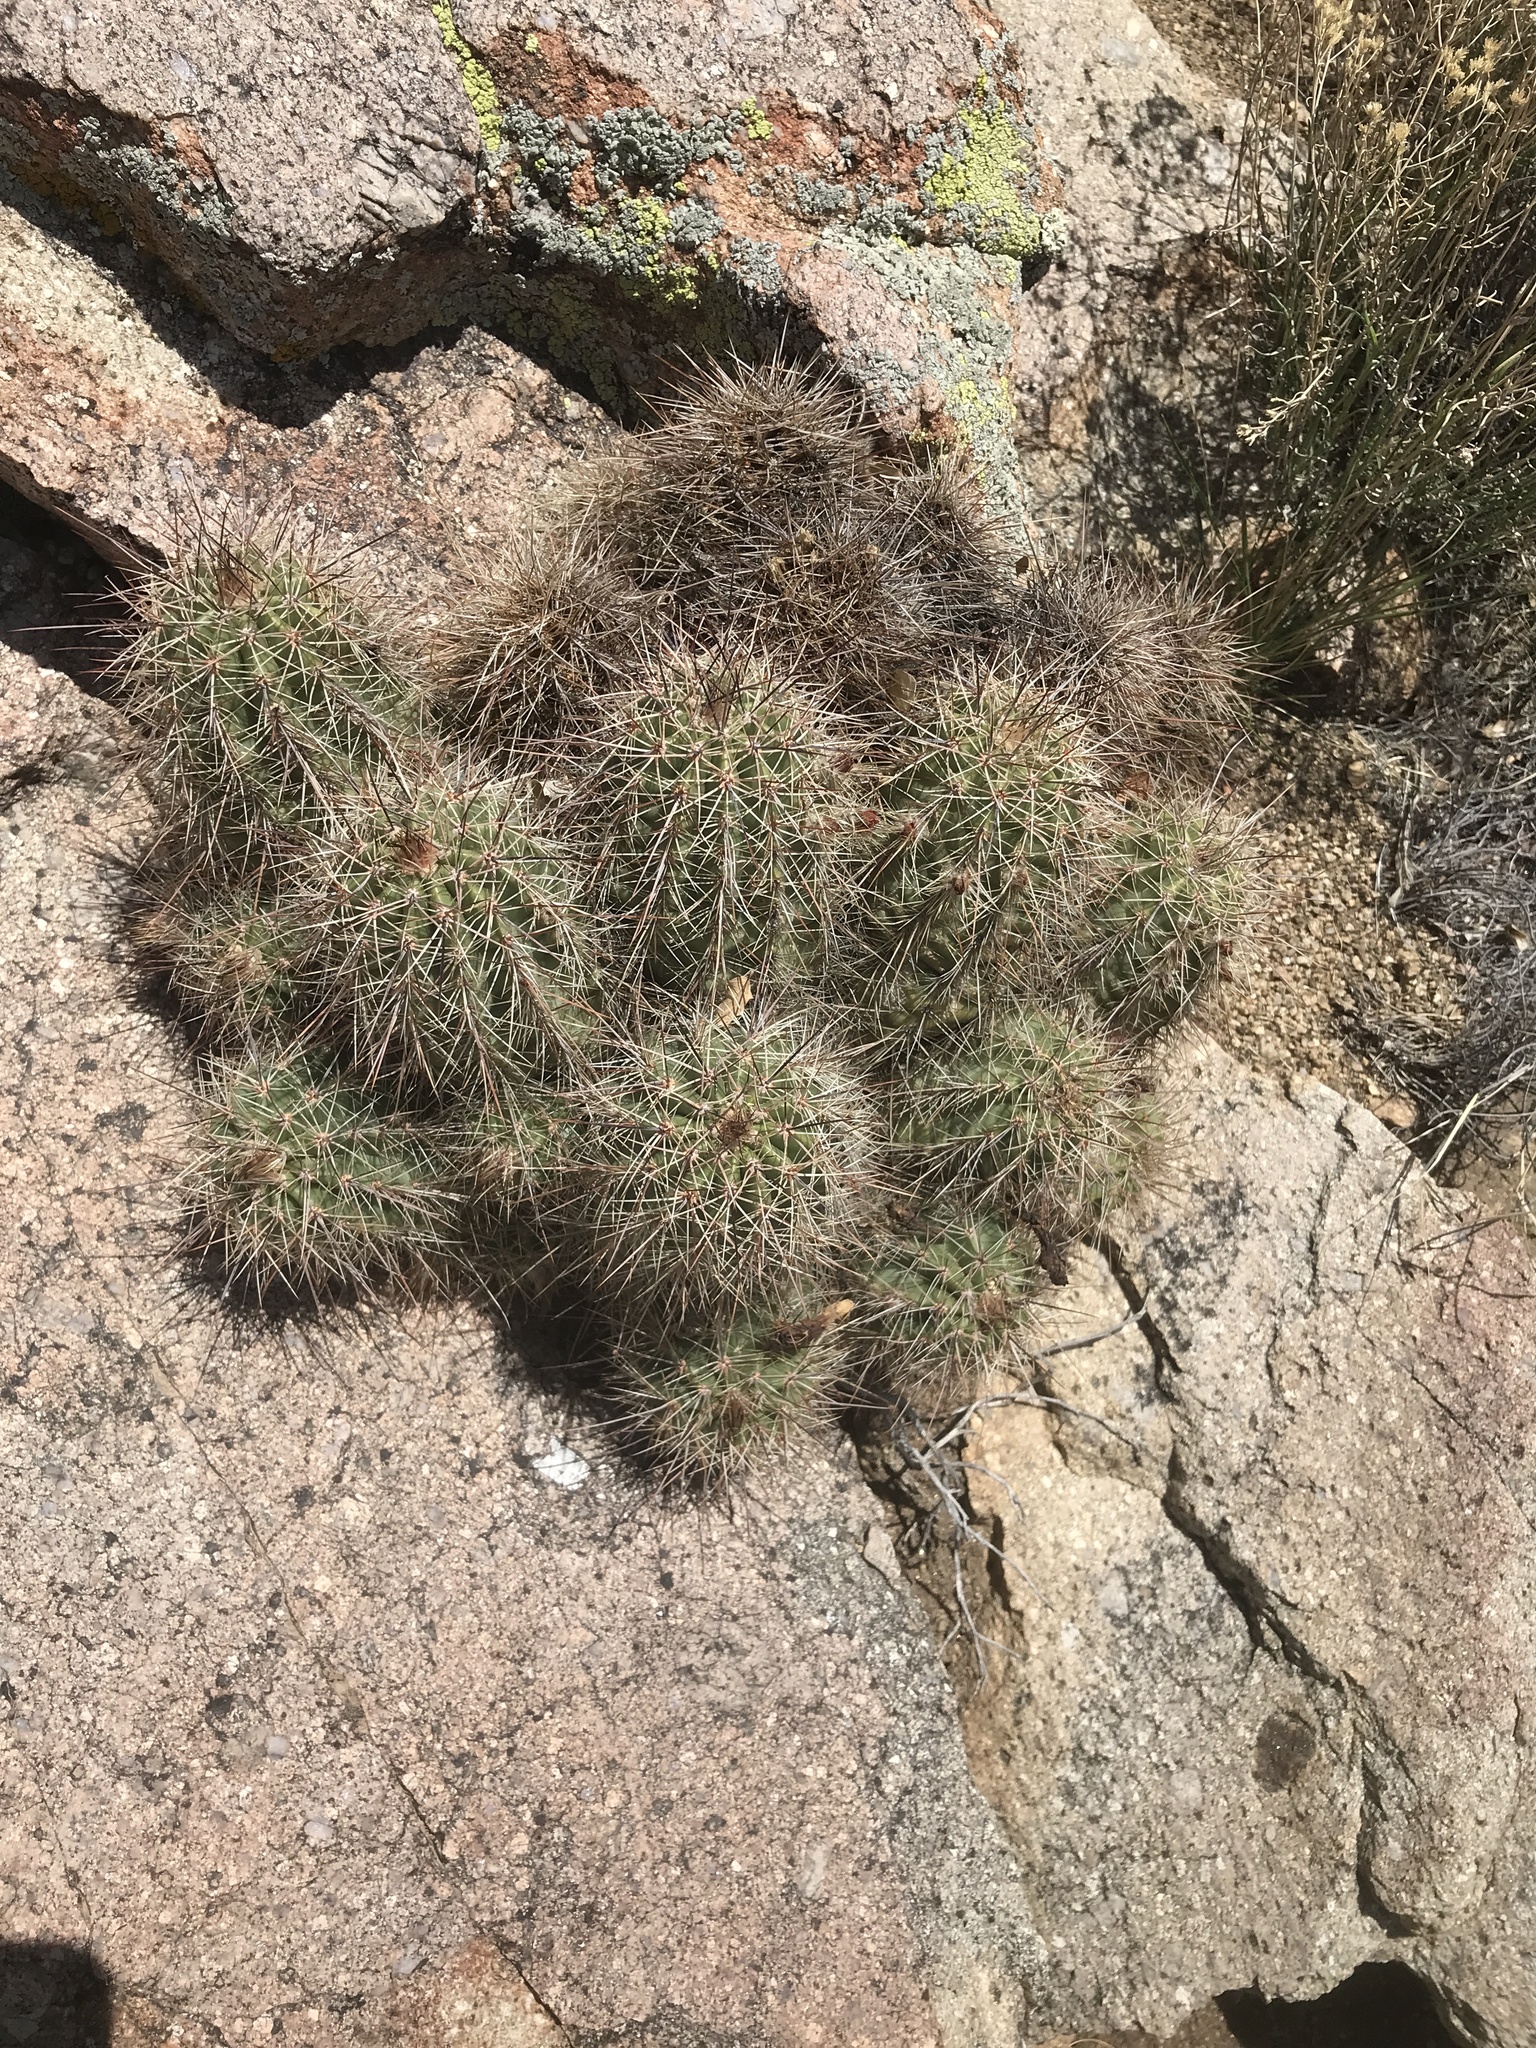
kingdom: Plantae
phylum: Tracheophyta
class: Magnoliopsida
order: Caryophyllales
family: Cactaceae
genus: Echinocereus
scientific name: Echinocereus coccineus
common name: Scarlet hedgehog cactus
